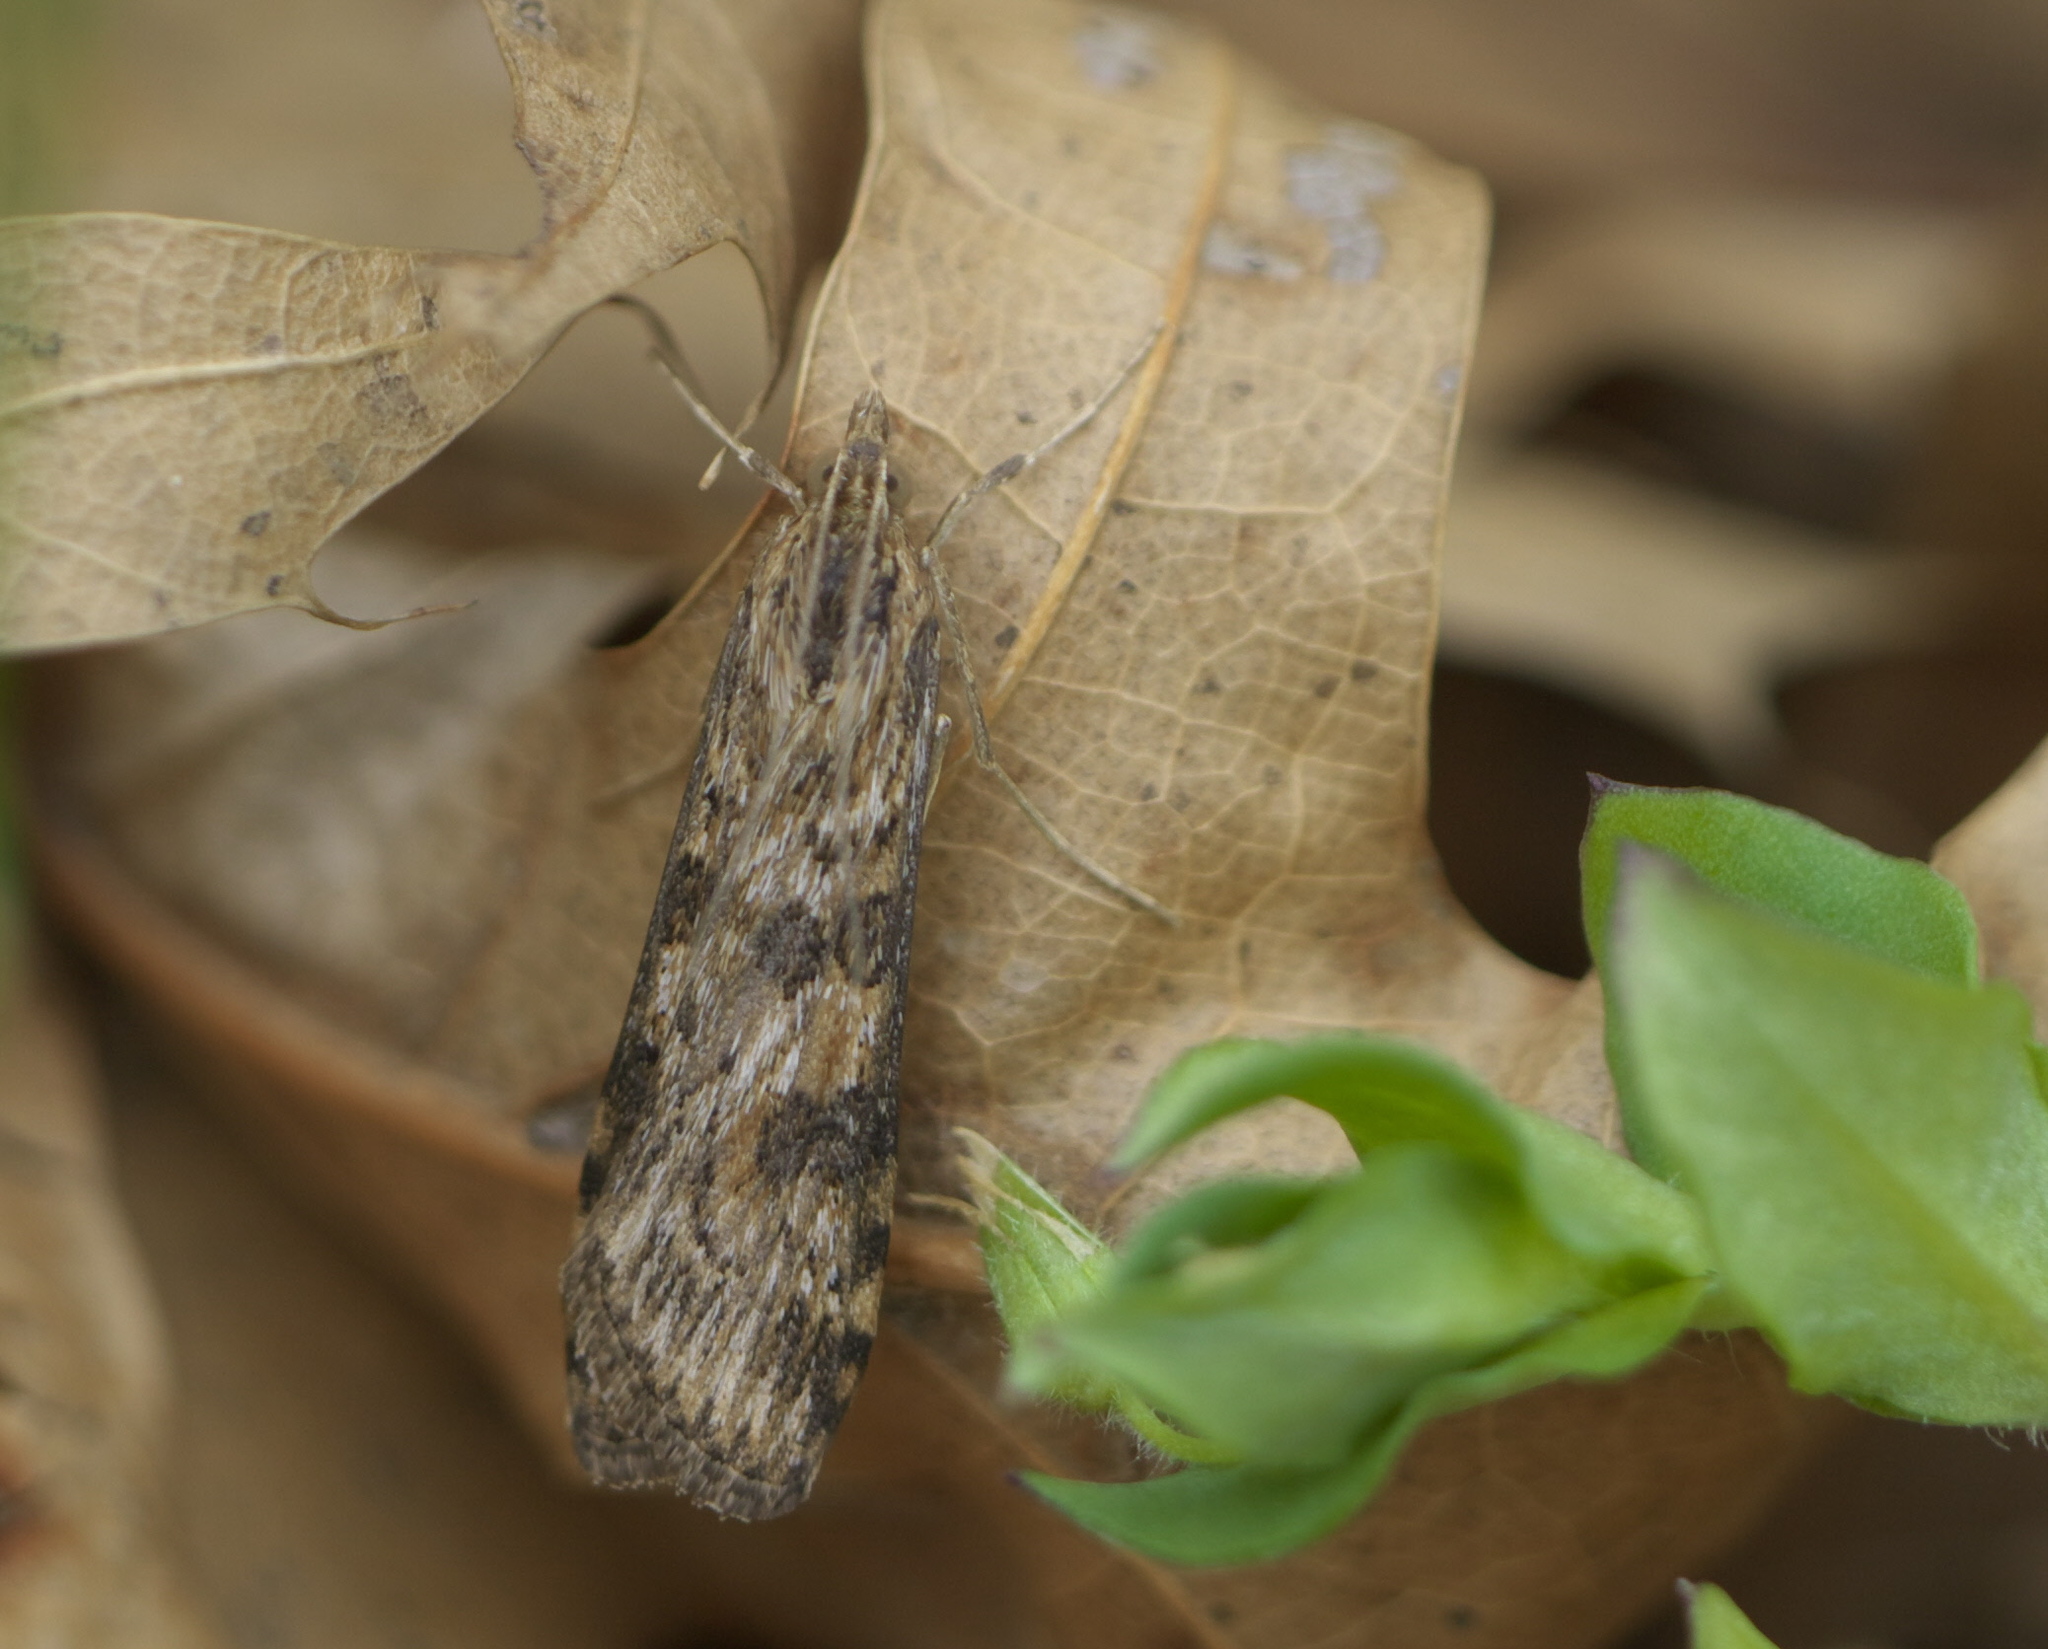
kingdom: Animalia
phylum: Arthropoda
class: Insecta
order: Lepidoptera
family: Crambidae
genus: Nomophila
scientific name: Nomophila nearctica
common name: American rush veneer
